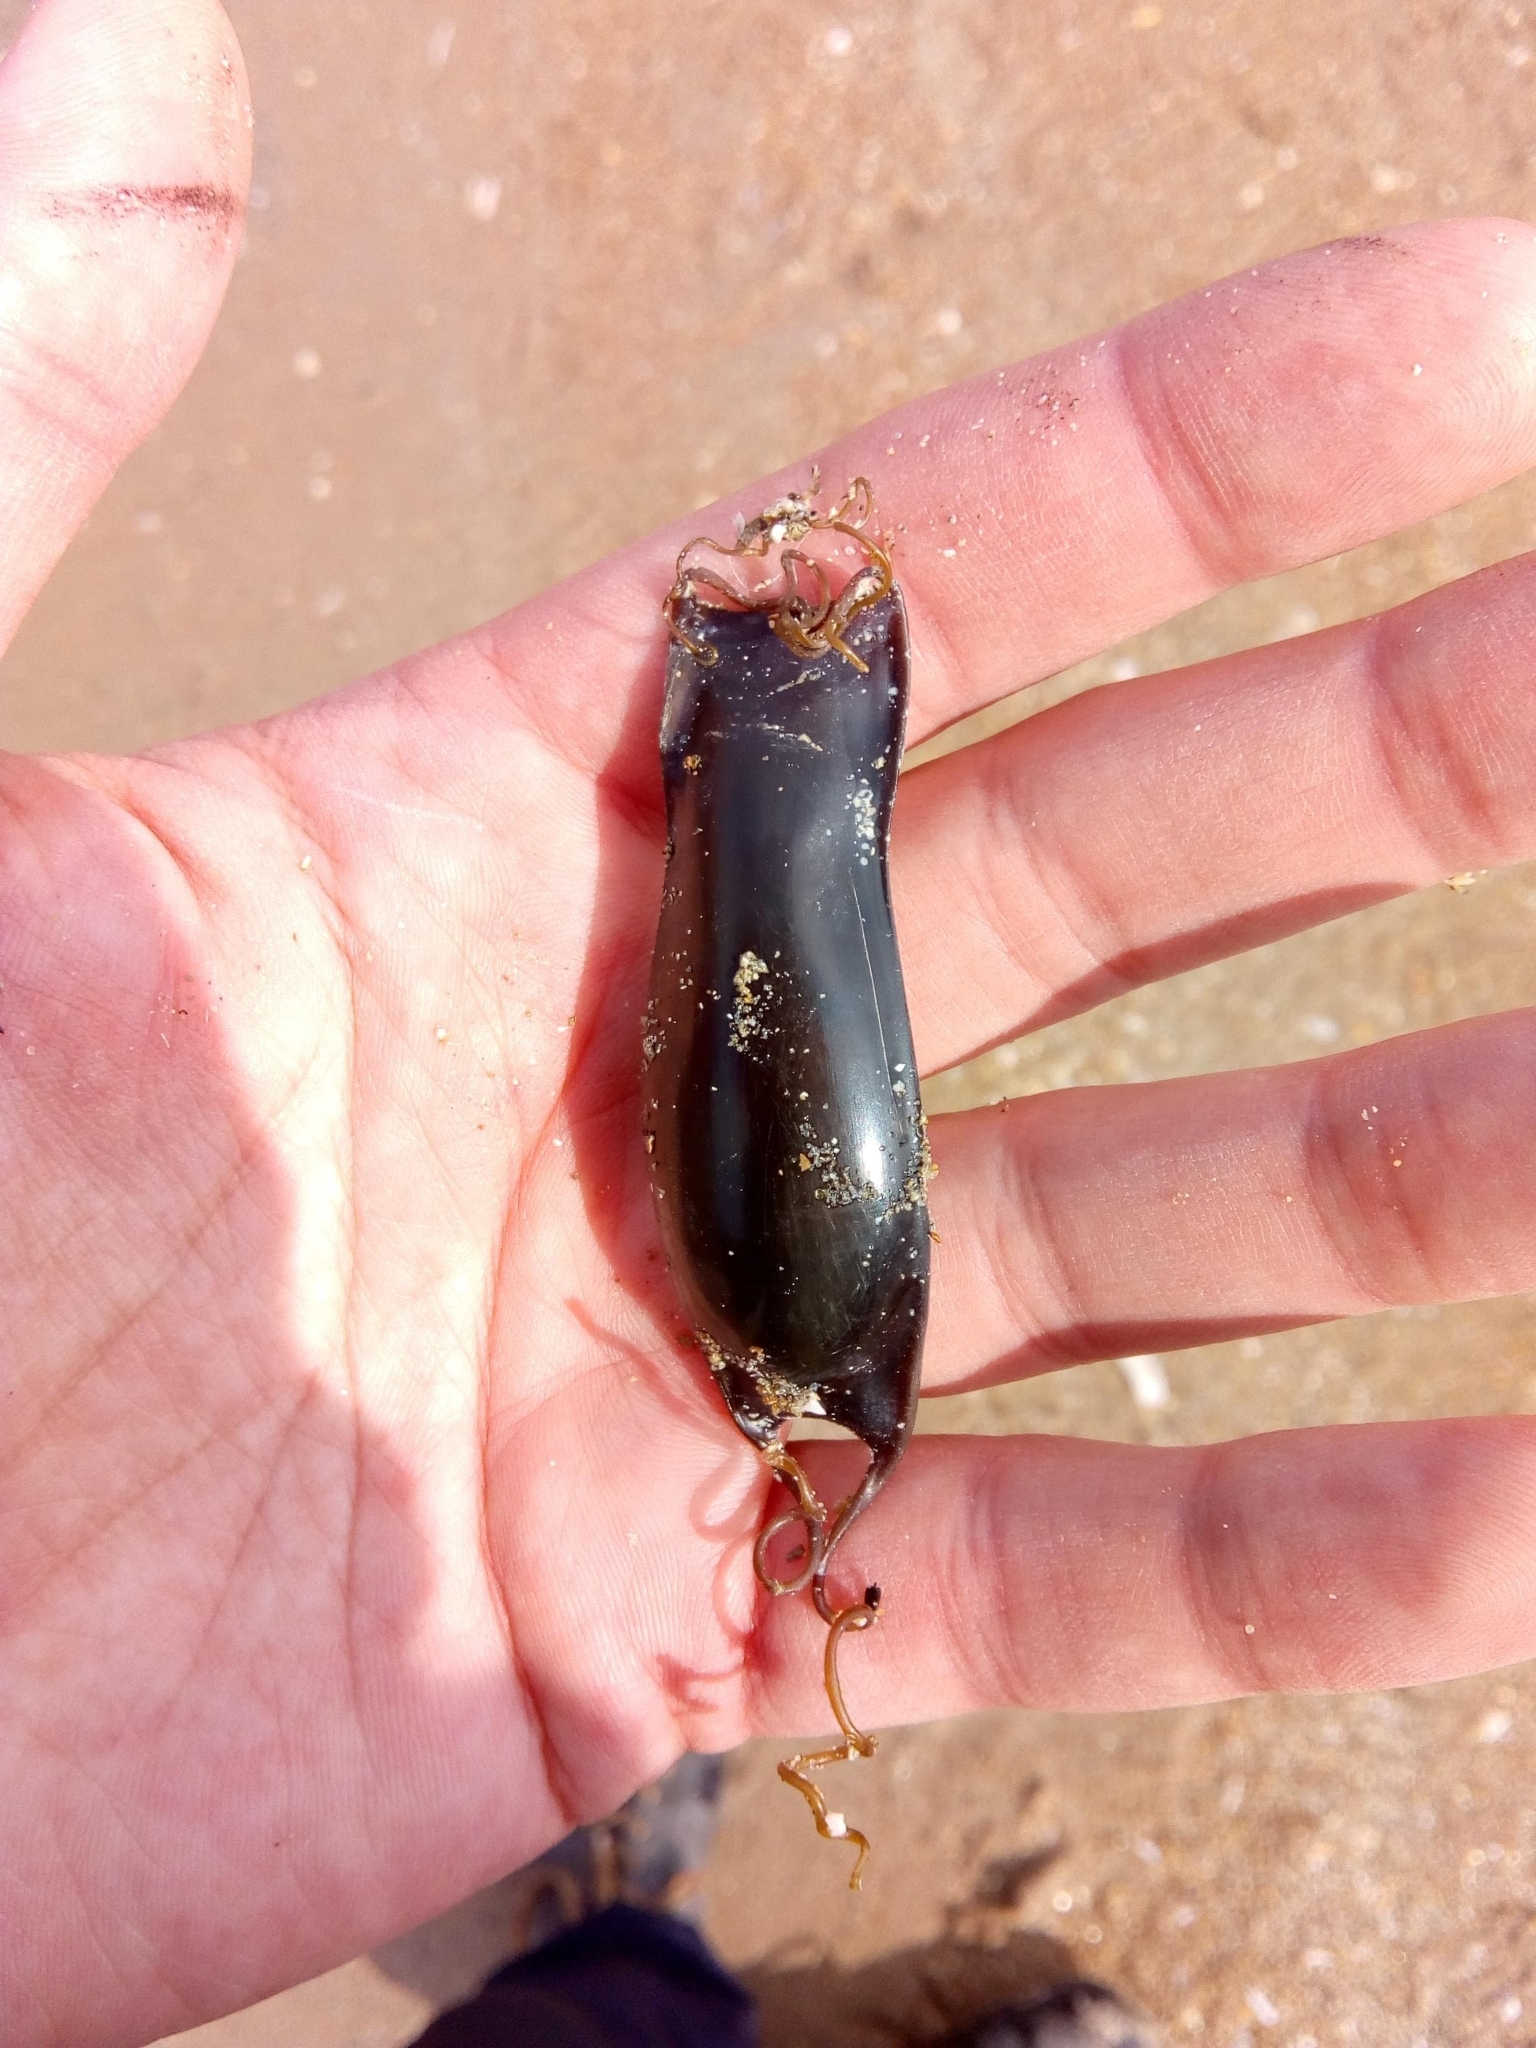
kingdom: Animalia
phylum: Chordata
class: Elasmobranchii
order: Carcharhiniformes
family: Scyliorhinidae
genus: Scyliorhinus
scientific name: Scyliorhinus canicula
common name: Lesser spotted dogfish
